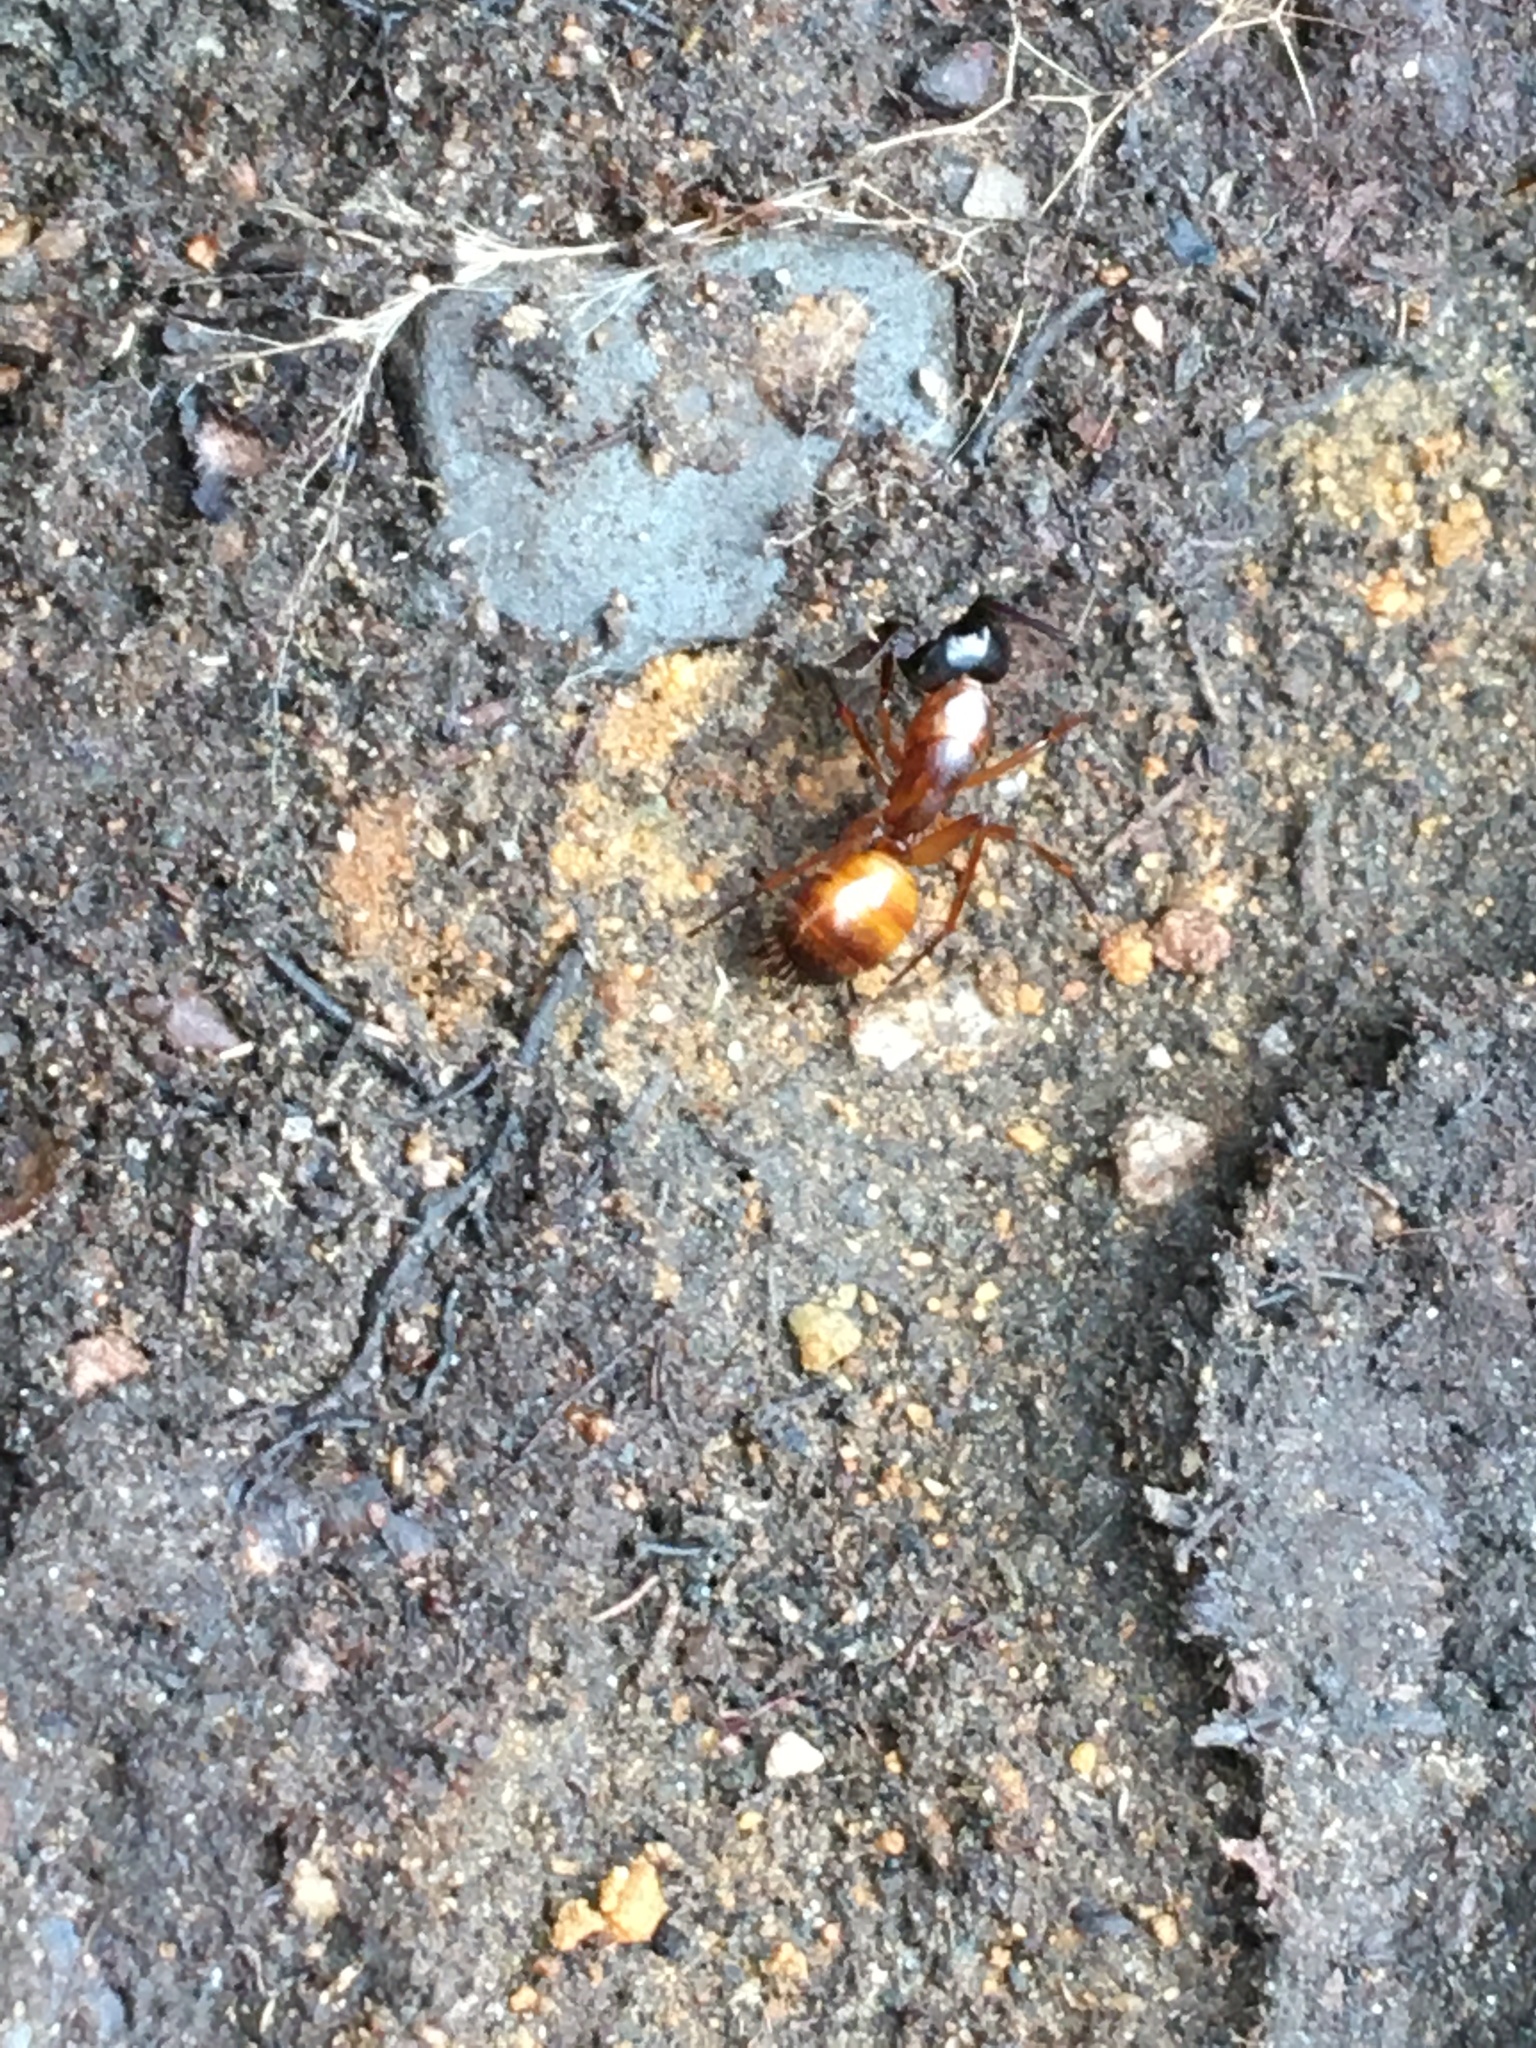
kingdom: Animalia
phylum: Arthropoda
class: Insecta
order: Hymenoptera
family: Formicidae
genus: Camponotus
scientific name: Camponotus americanus
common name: American carpenter ant
